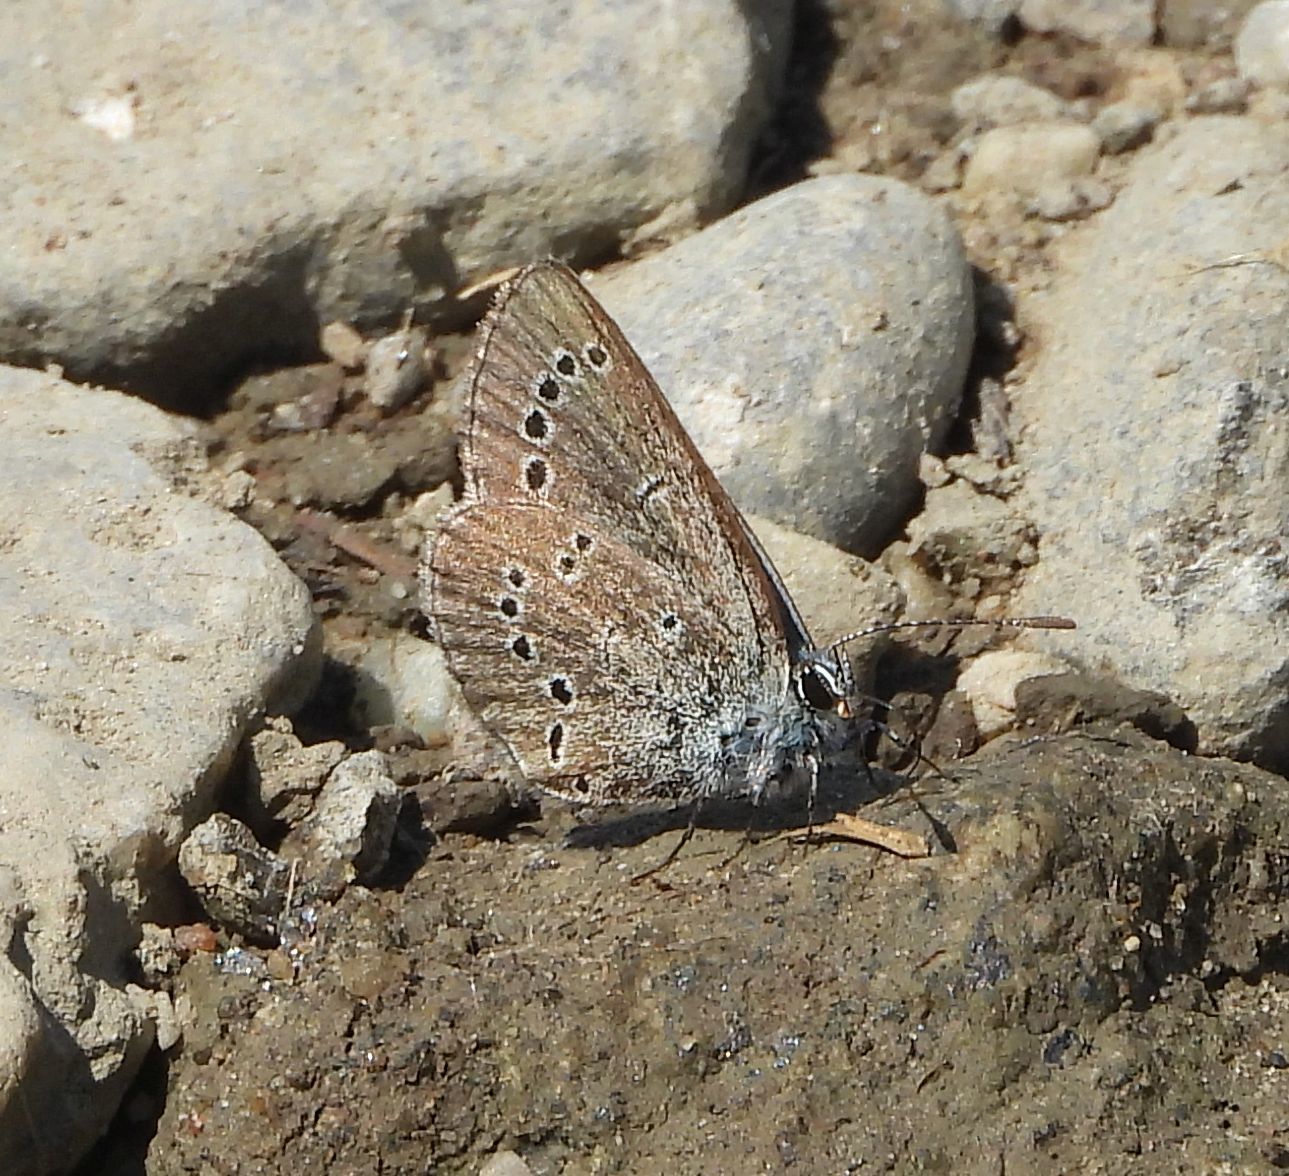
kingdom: Animalia
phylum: Arthropoda
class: Insecta
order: Lepidoptera
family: Lycaenidae
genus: Glaucopsyche
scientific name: Glaucopsyche lygdamus
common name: Silvery blue
